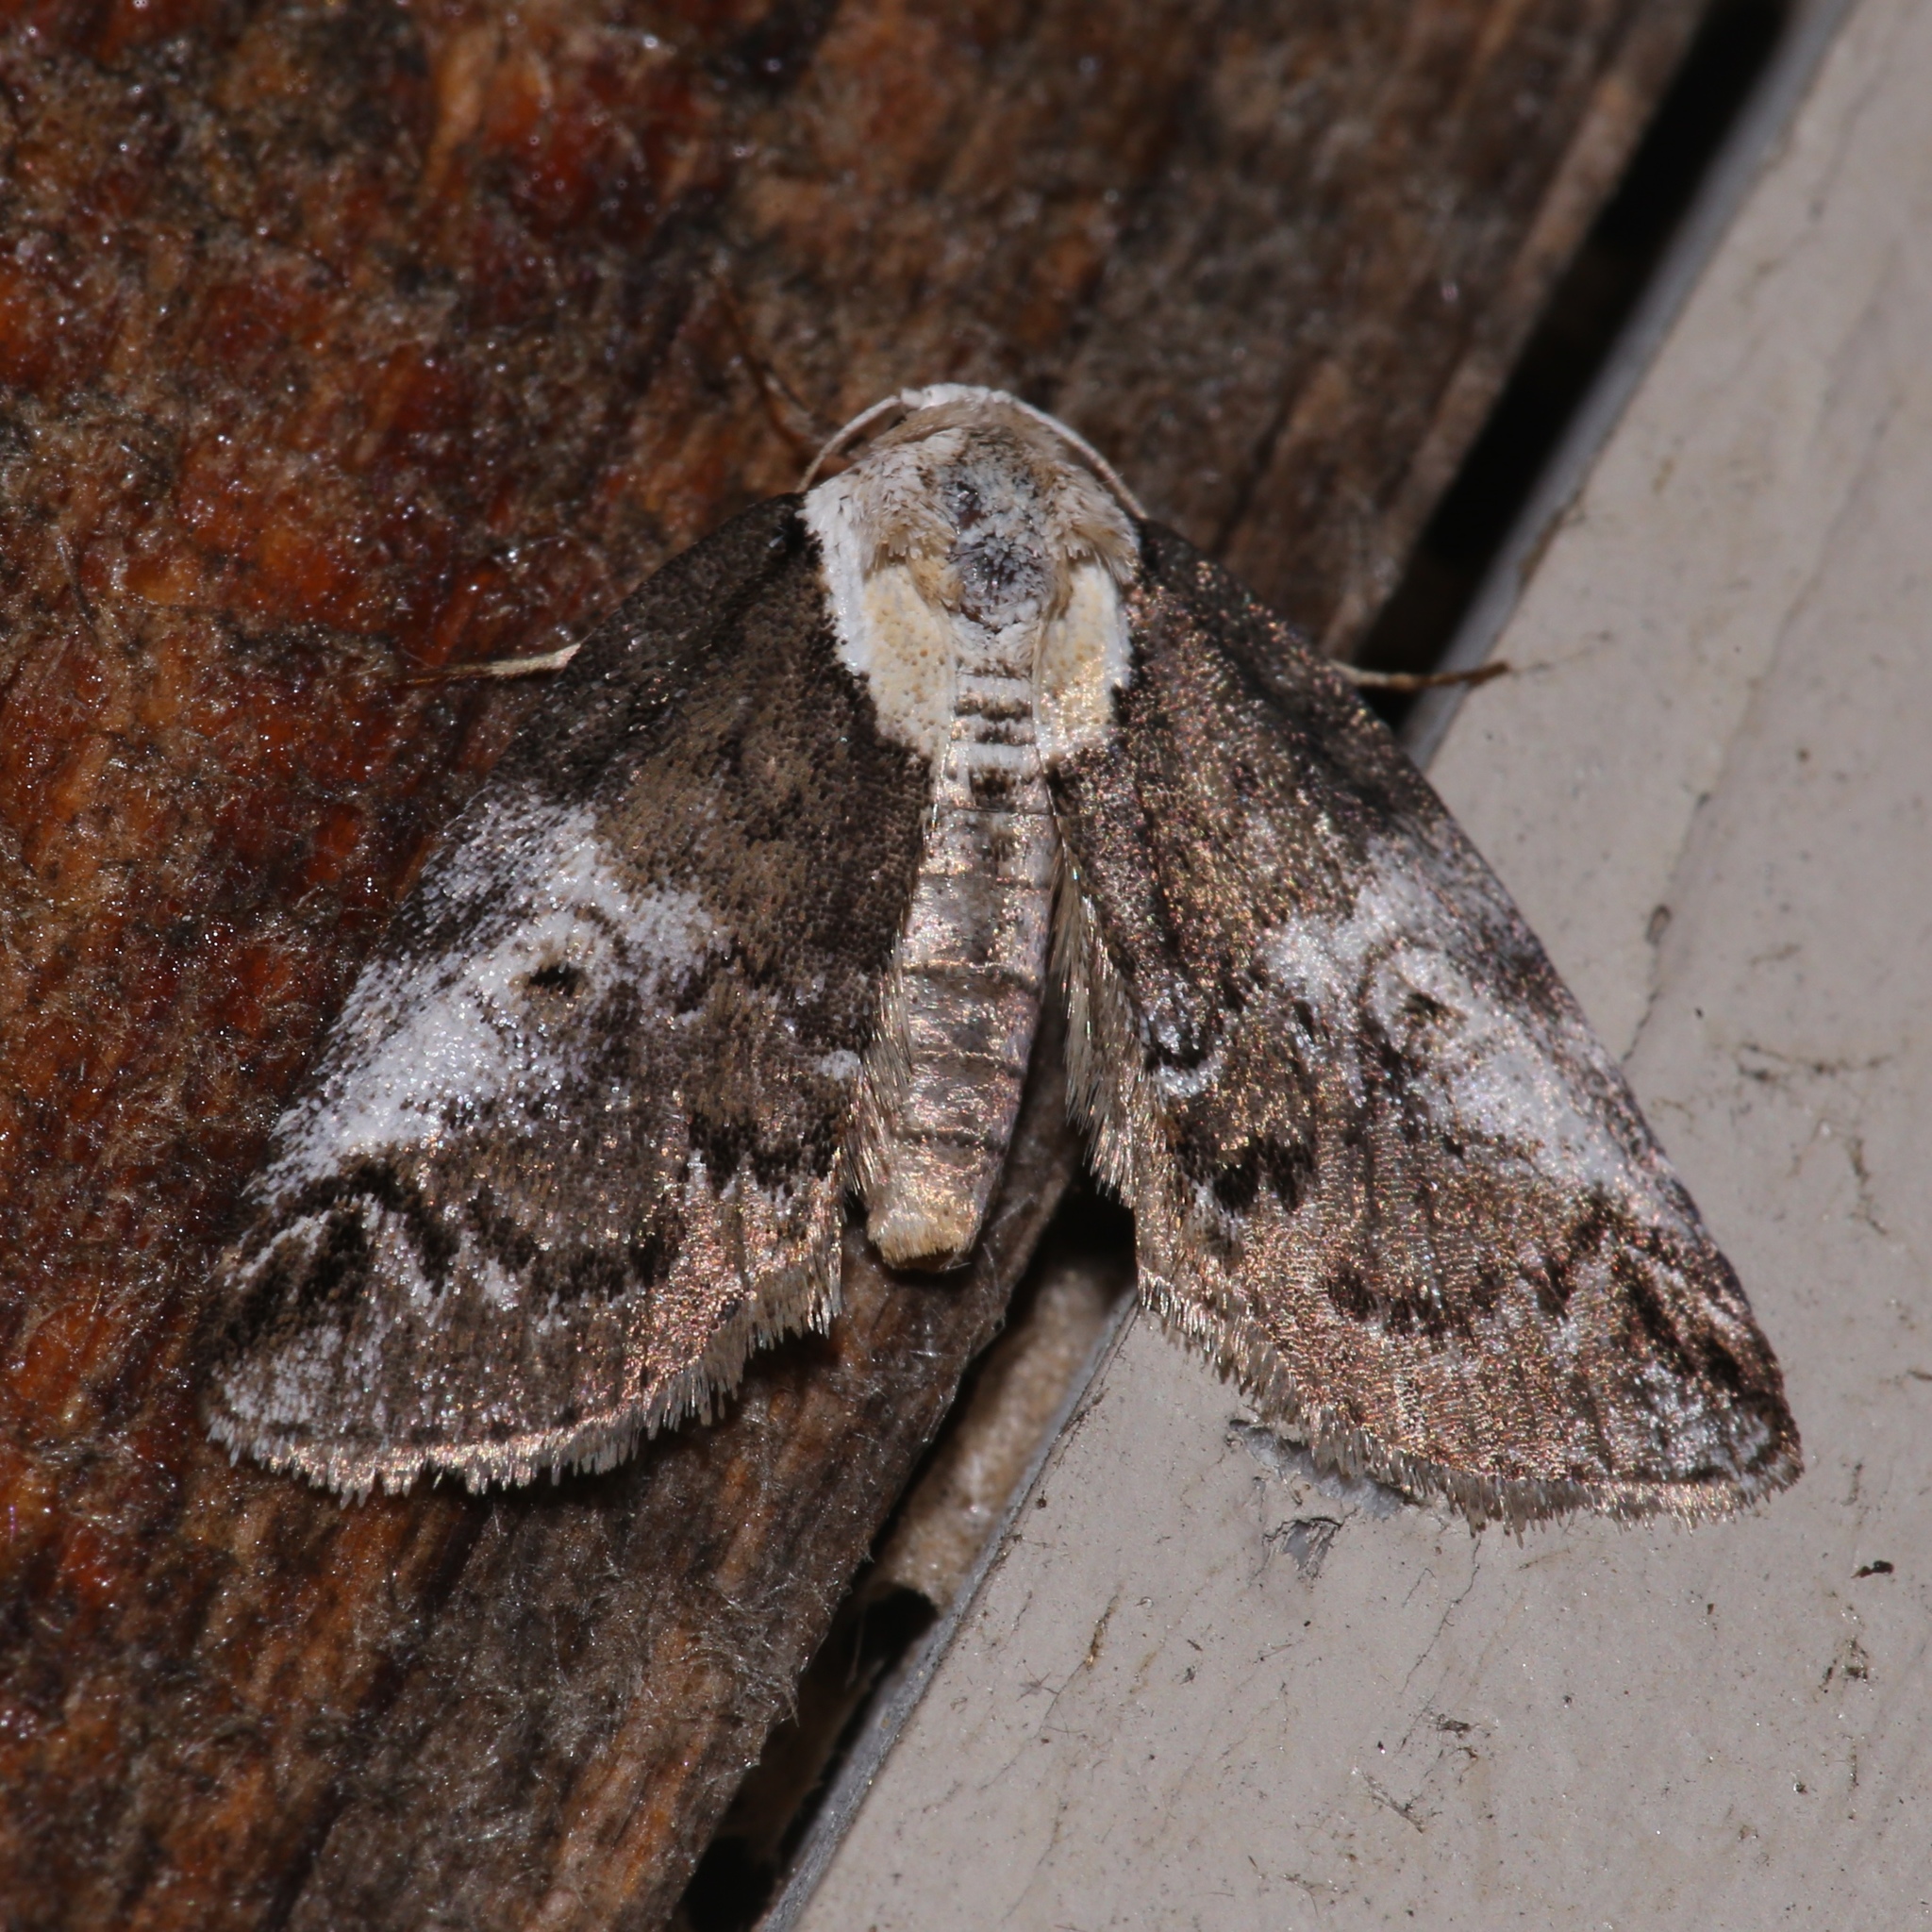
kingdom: Animalia
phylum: Arthropoda
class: Insecta
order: Lepidoptera
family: Nolidae
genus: Baileya
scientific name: Baileya ophthalmica
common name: Eyed baileya moth
